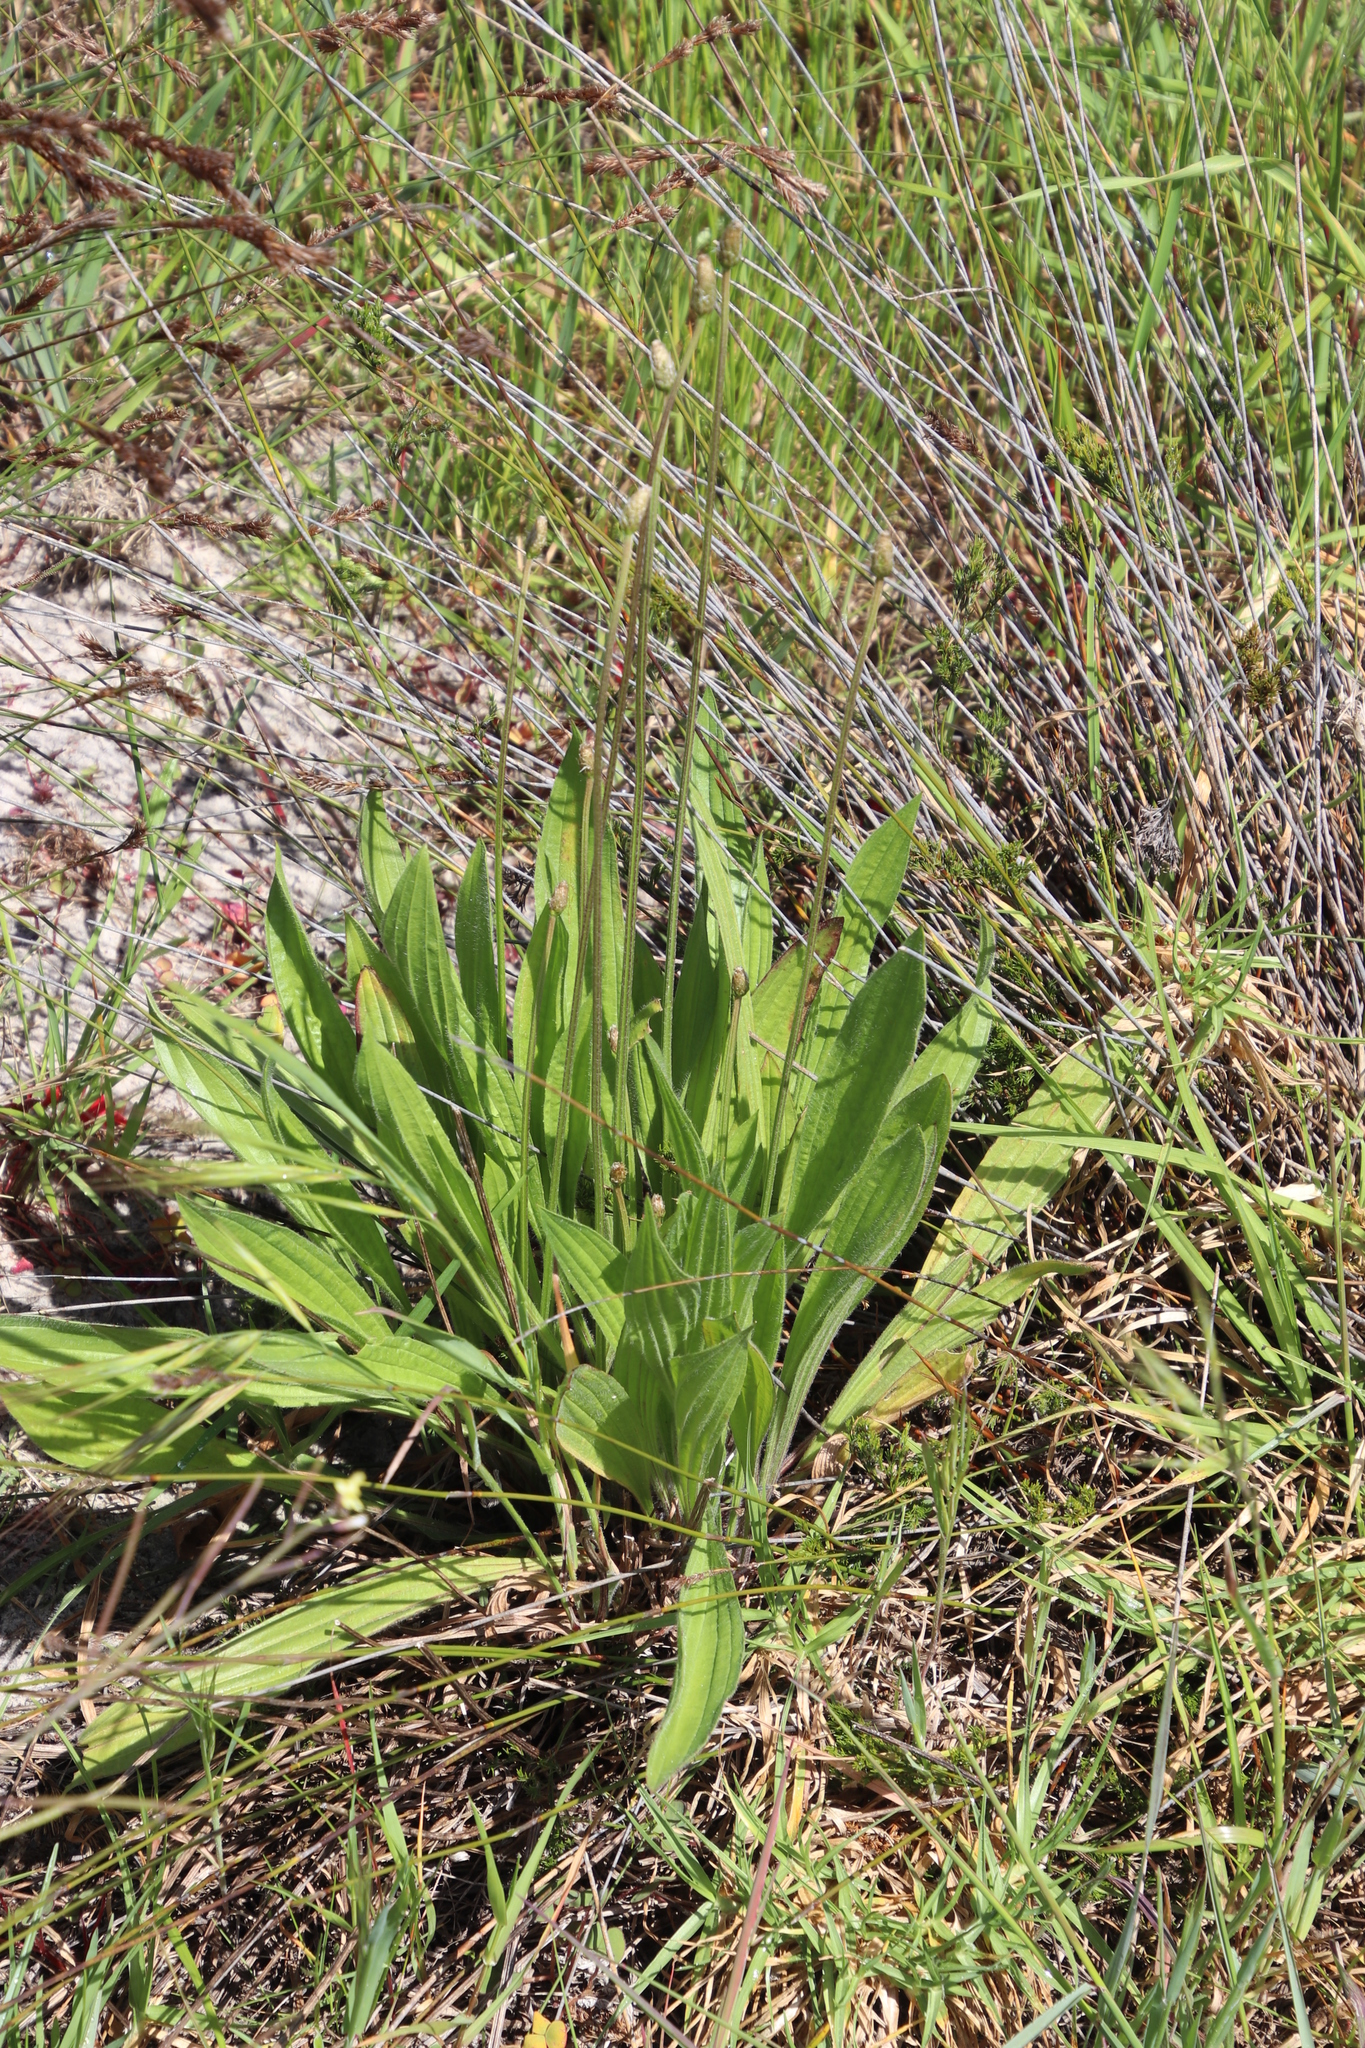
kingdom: Plantae
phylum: Tracheophyta
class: Magnoliopsida
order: Lamiales
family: Plantaginaceae
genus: Plantago
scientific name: Plantago lanceolata
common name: Ribwort plantain
